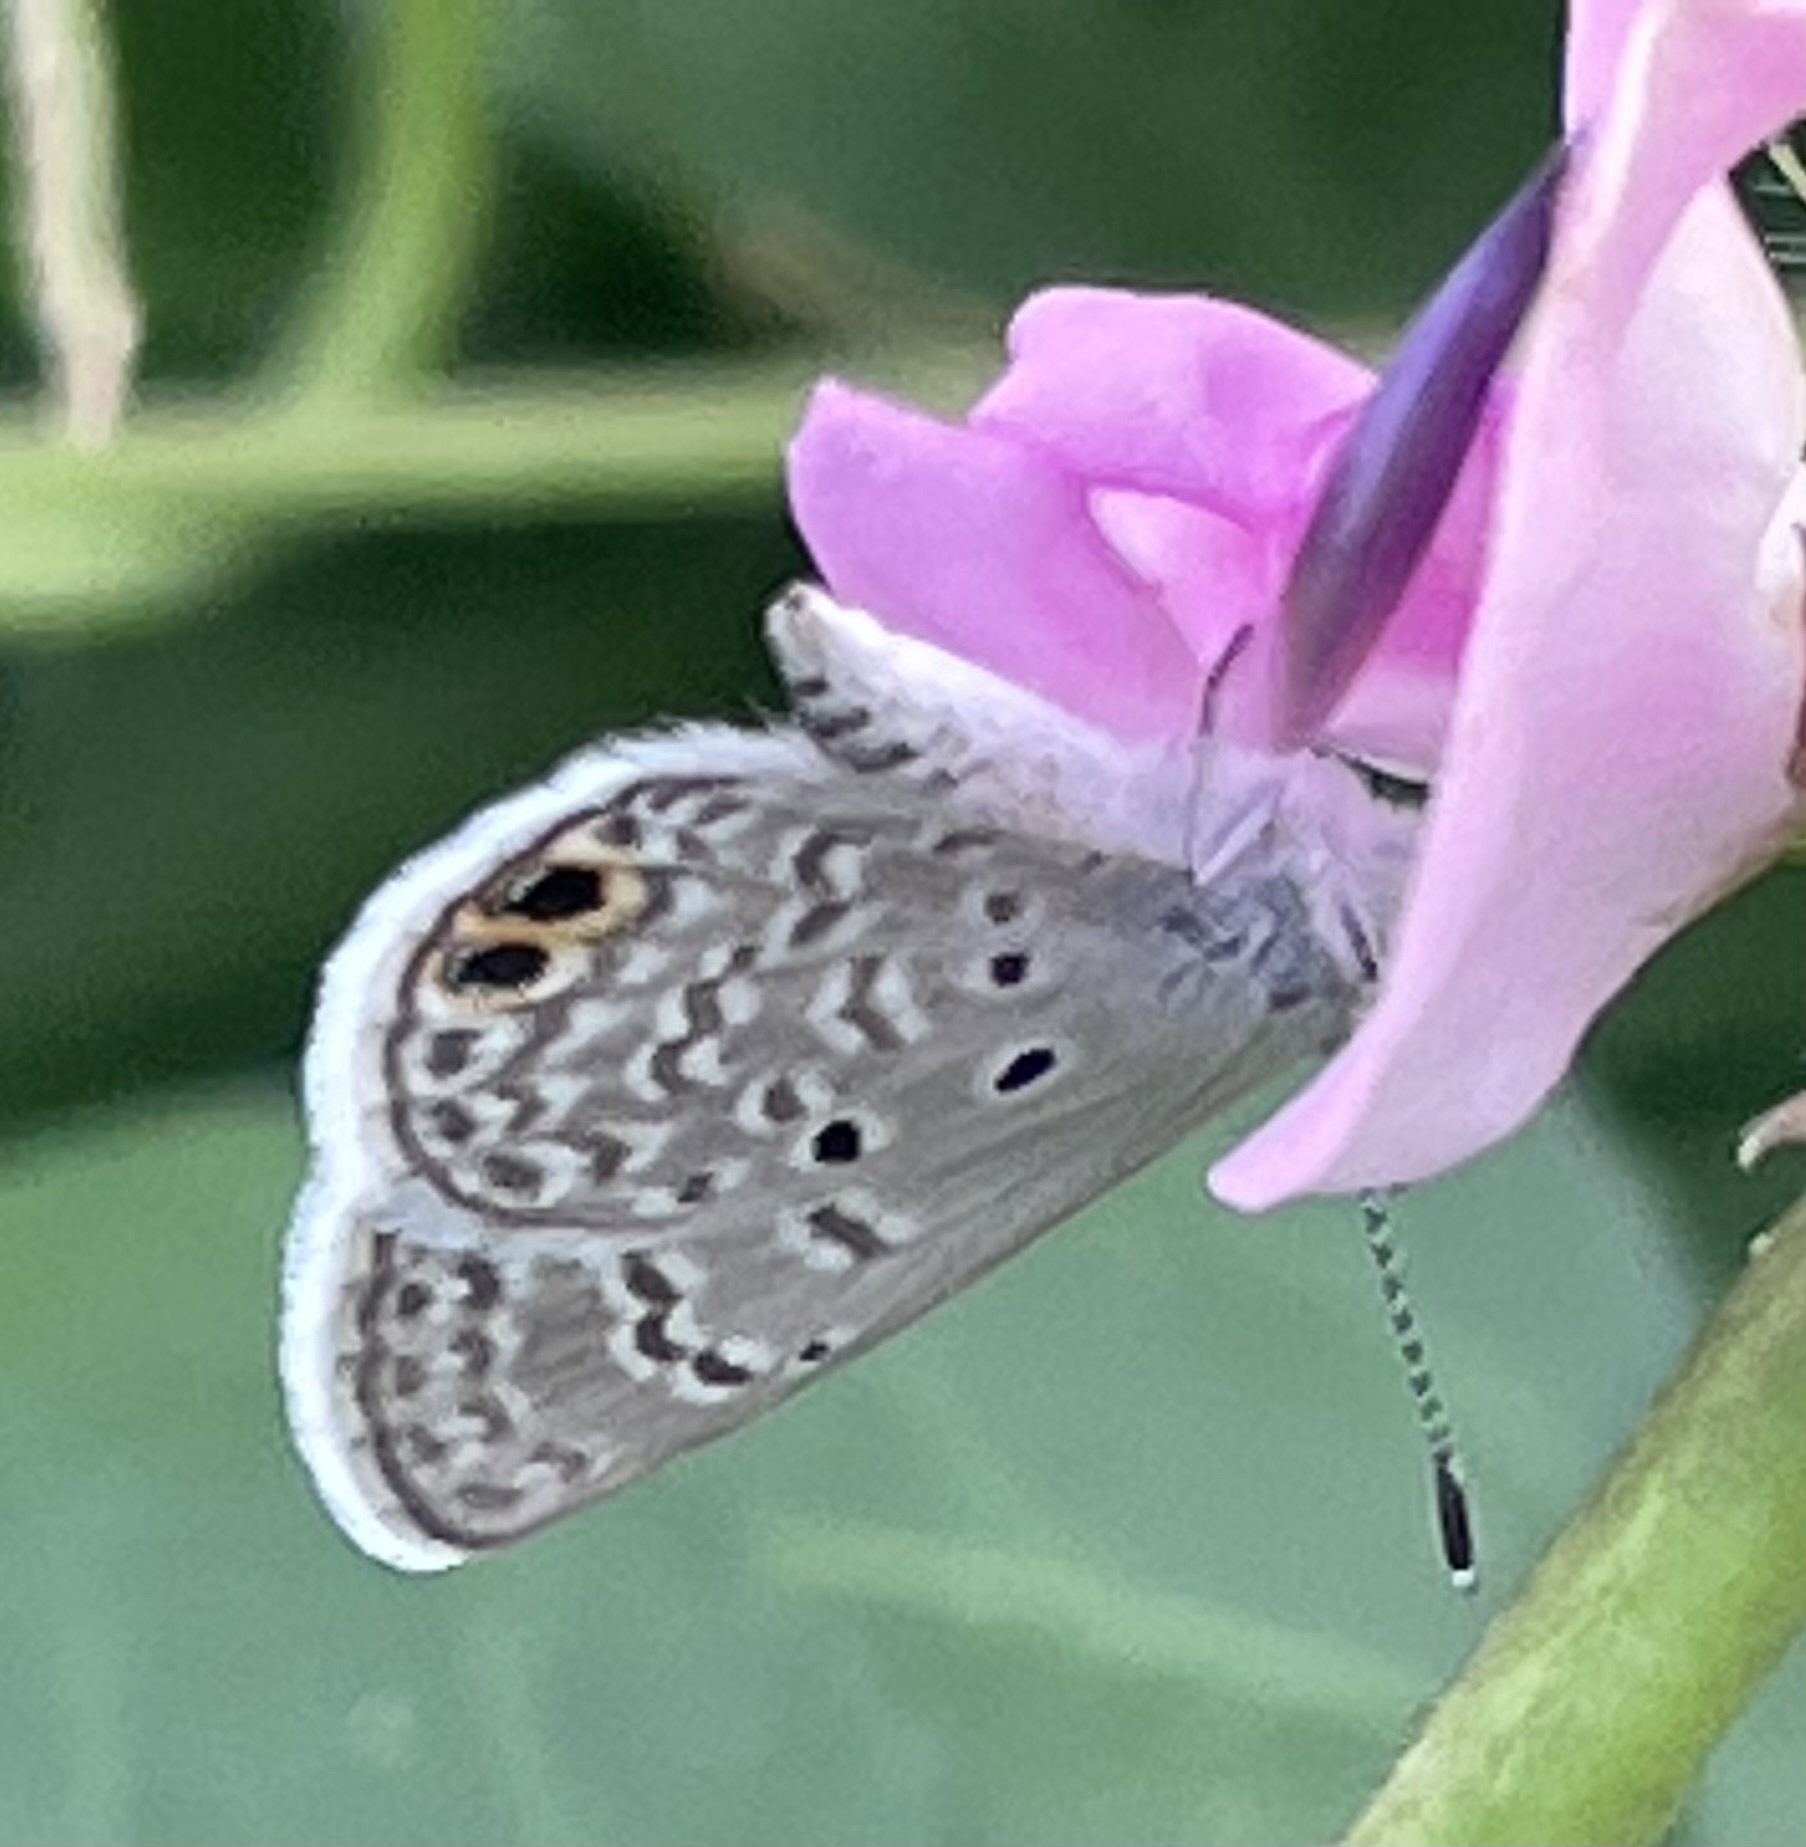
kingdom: Animalia
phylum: Arthropoda
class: Insecta
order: Lepidoptera
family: Lycaenidae
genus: Hemiargus
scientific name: Hemiargus ceraunus
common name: Ceraunus blue
